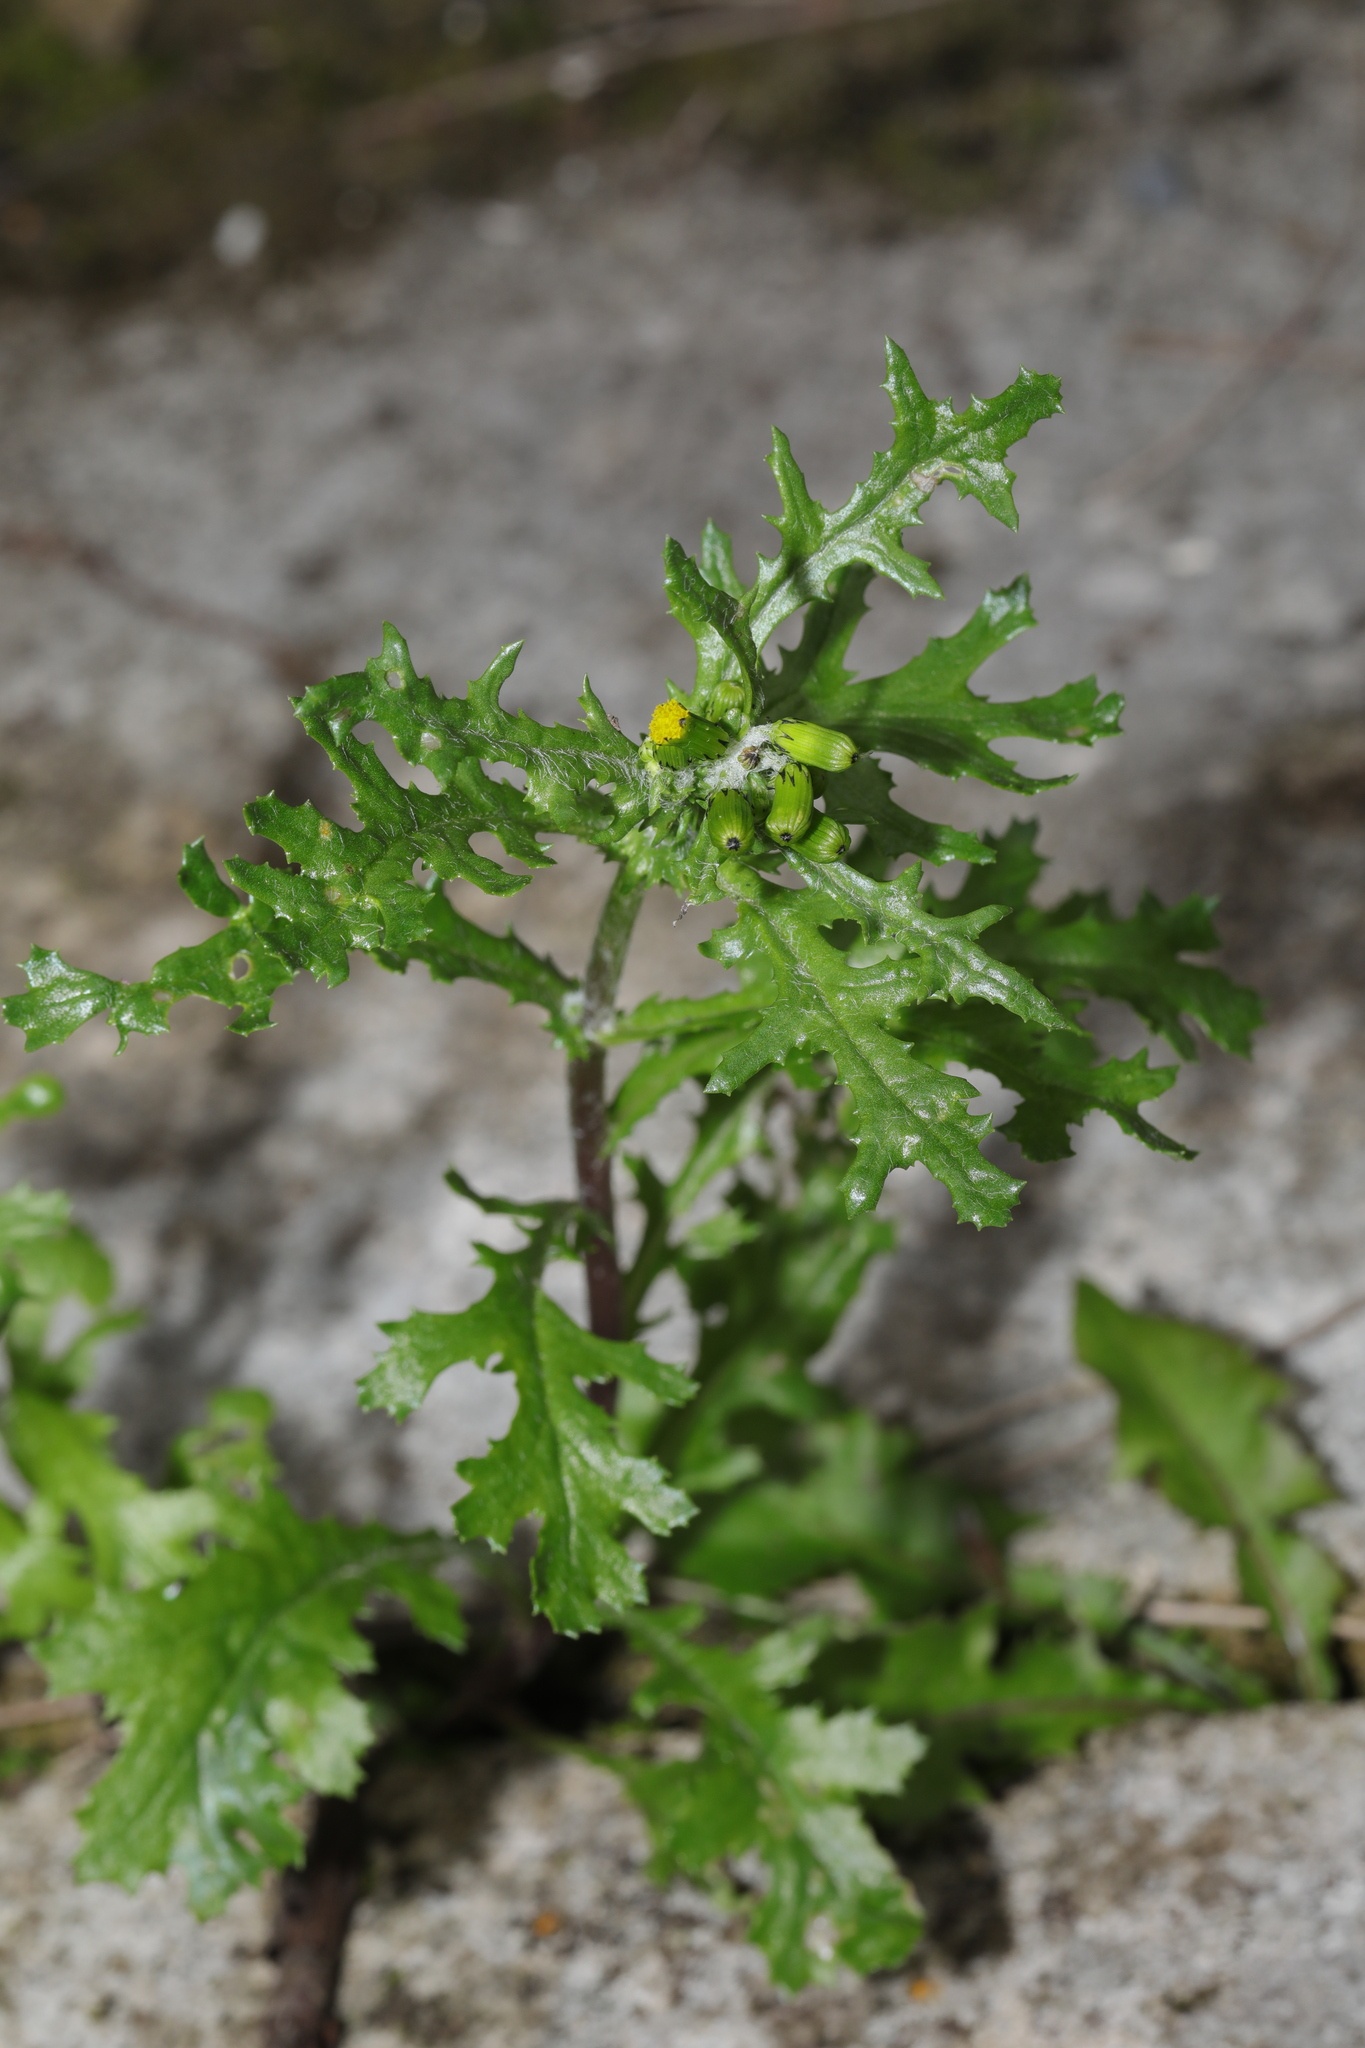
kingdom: Plantae
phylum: Tracheophyta
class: Magnoliopsida
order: Asterales
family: Asteraceae
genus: Senecio
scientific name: Senecio vulgaris
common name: Old-man-in-the-spring
